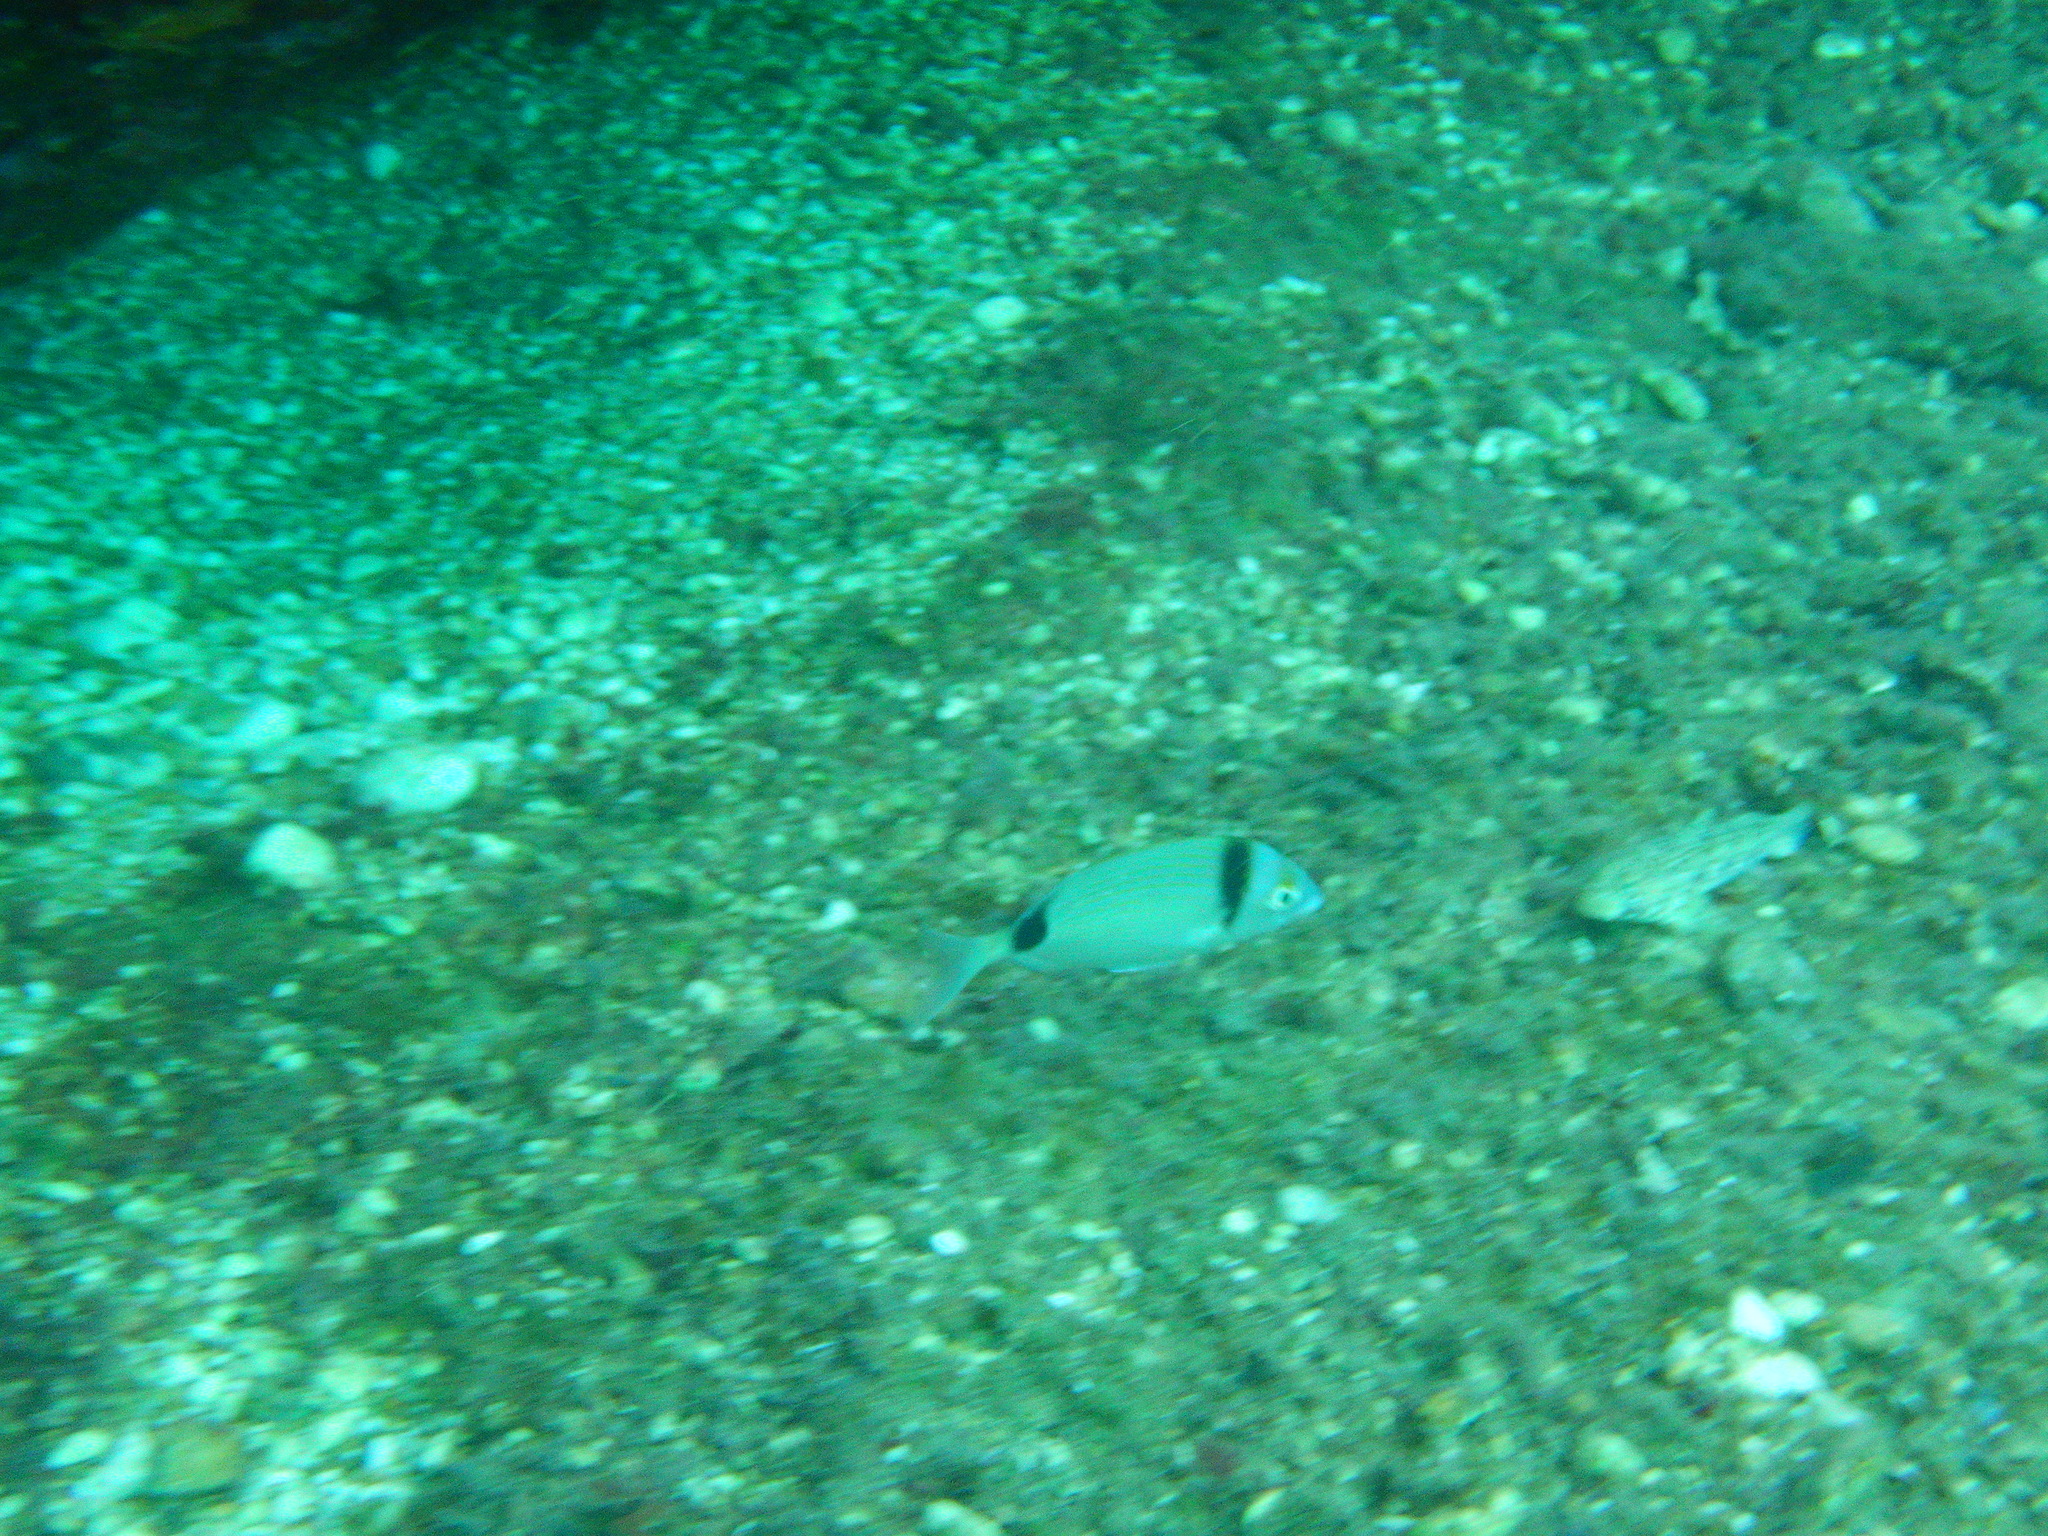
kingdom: Animalia
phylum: Chordata
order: Perciformes
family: Sparidae
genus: Diplodus
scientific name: Diplodus vulgaris
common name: Common two-banded seabream
